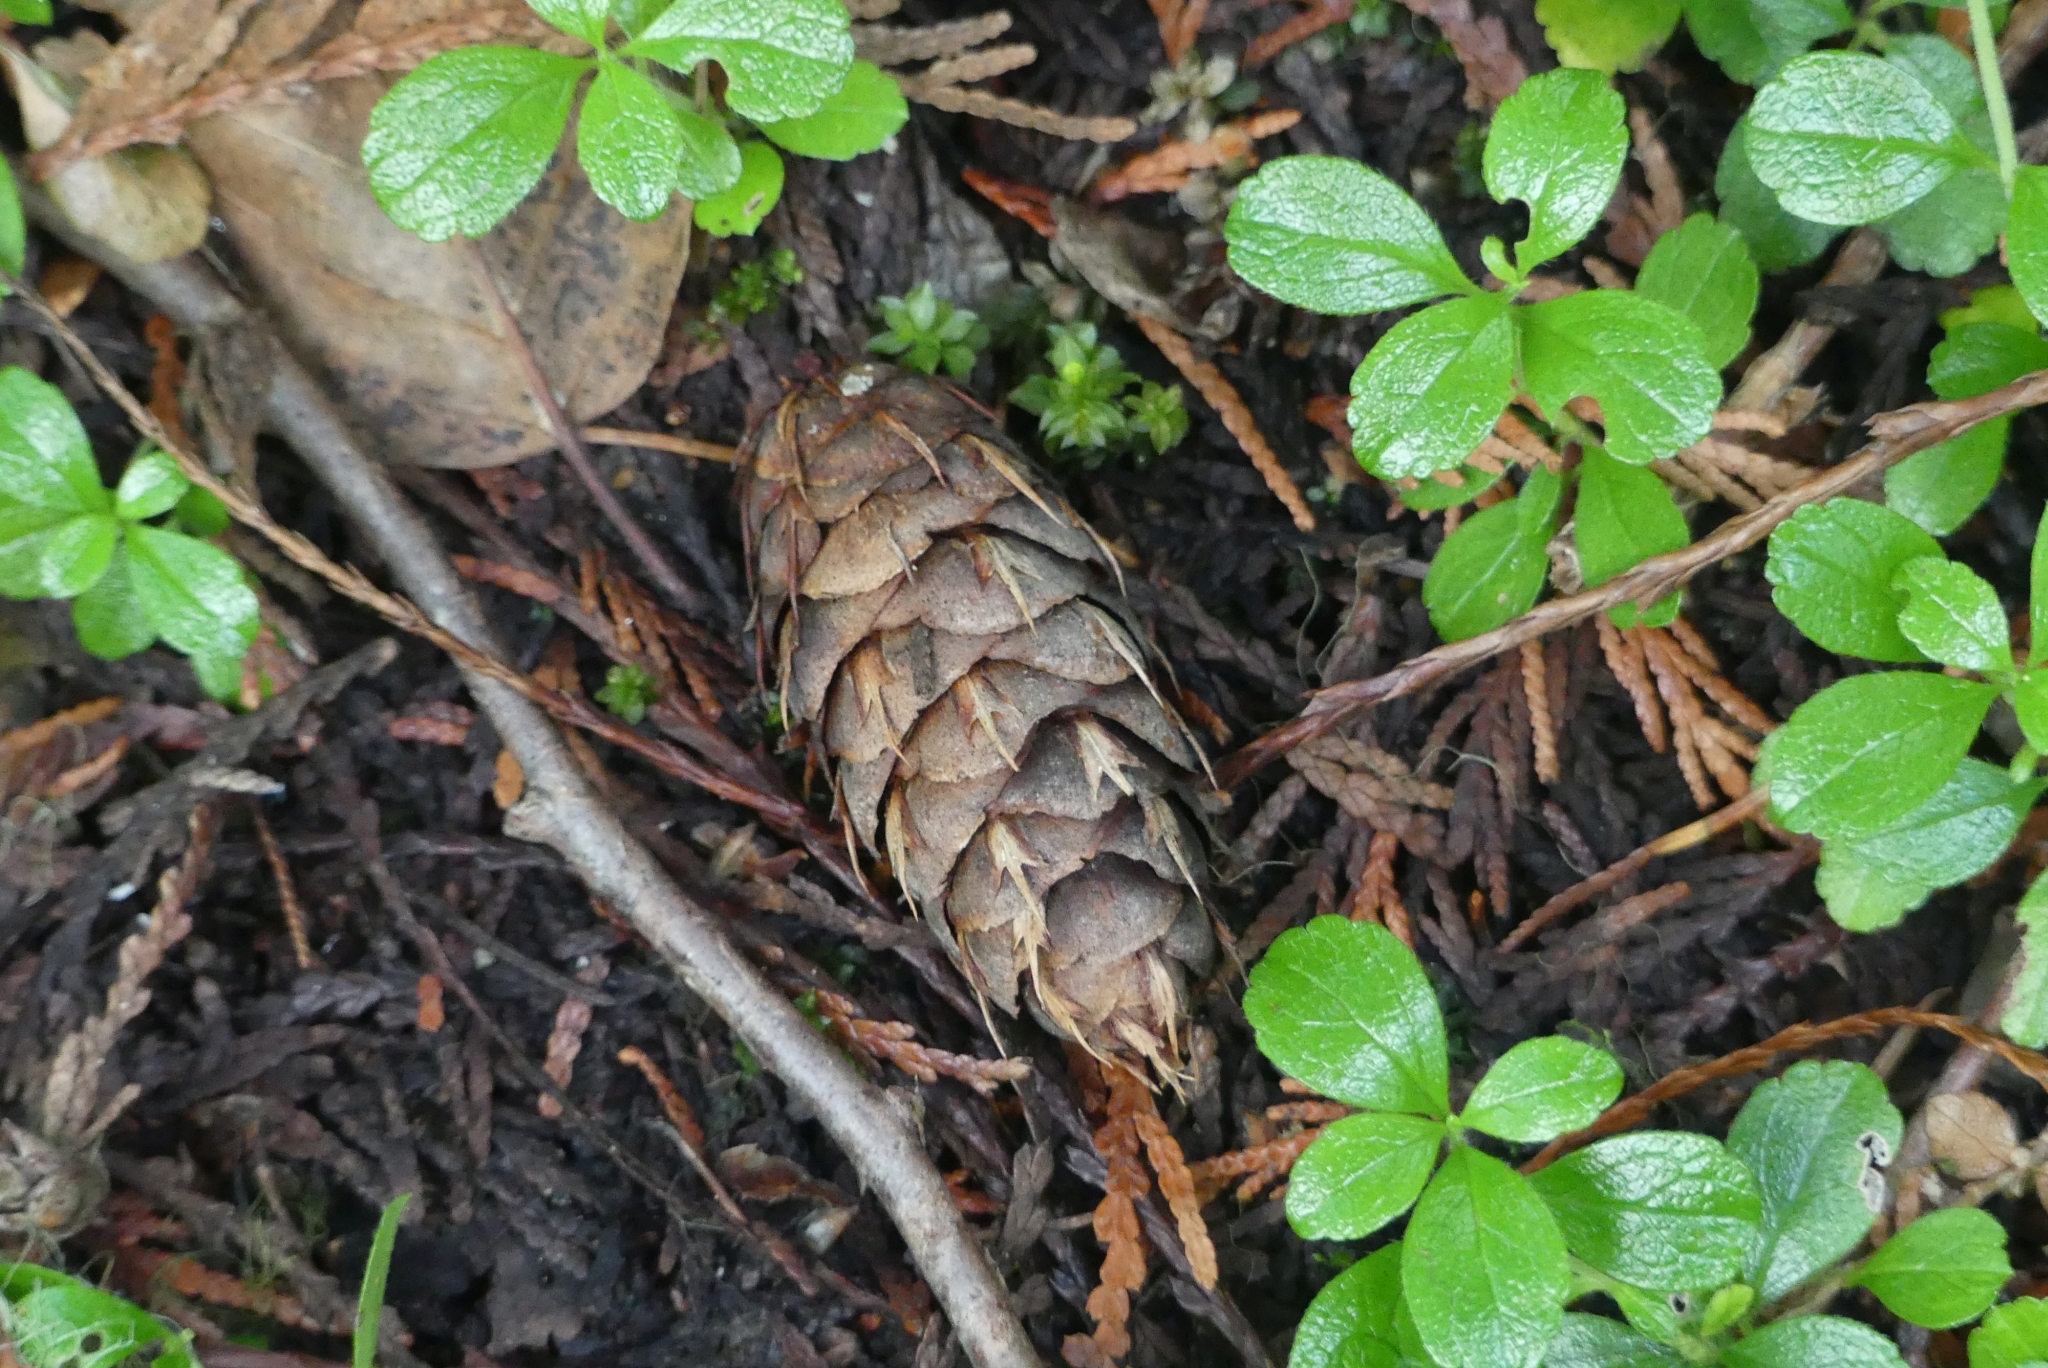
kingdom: Plantae
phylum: Tracheophyta
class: Pinopsida
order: Pinales
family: Pinaceae
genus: Pseudotsuga
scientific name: Pseudotsuga menziesii
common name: Douglas fir
